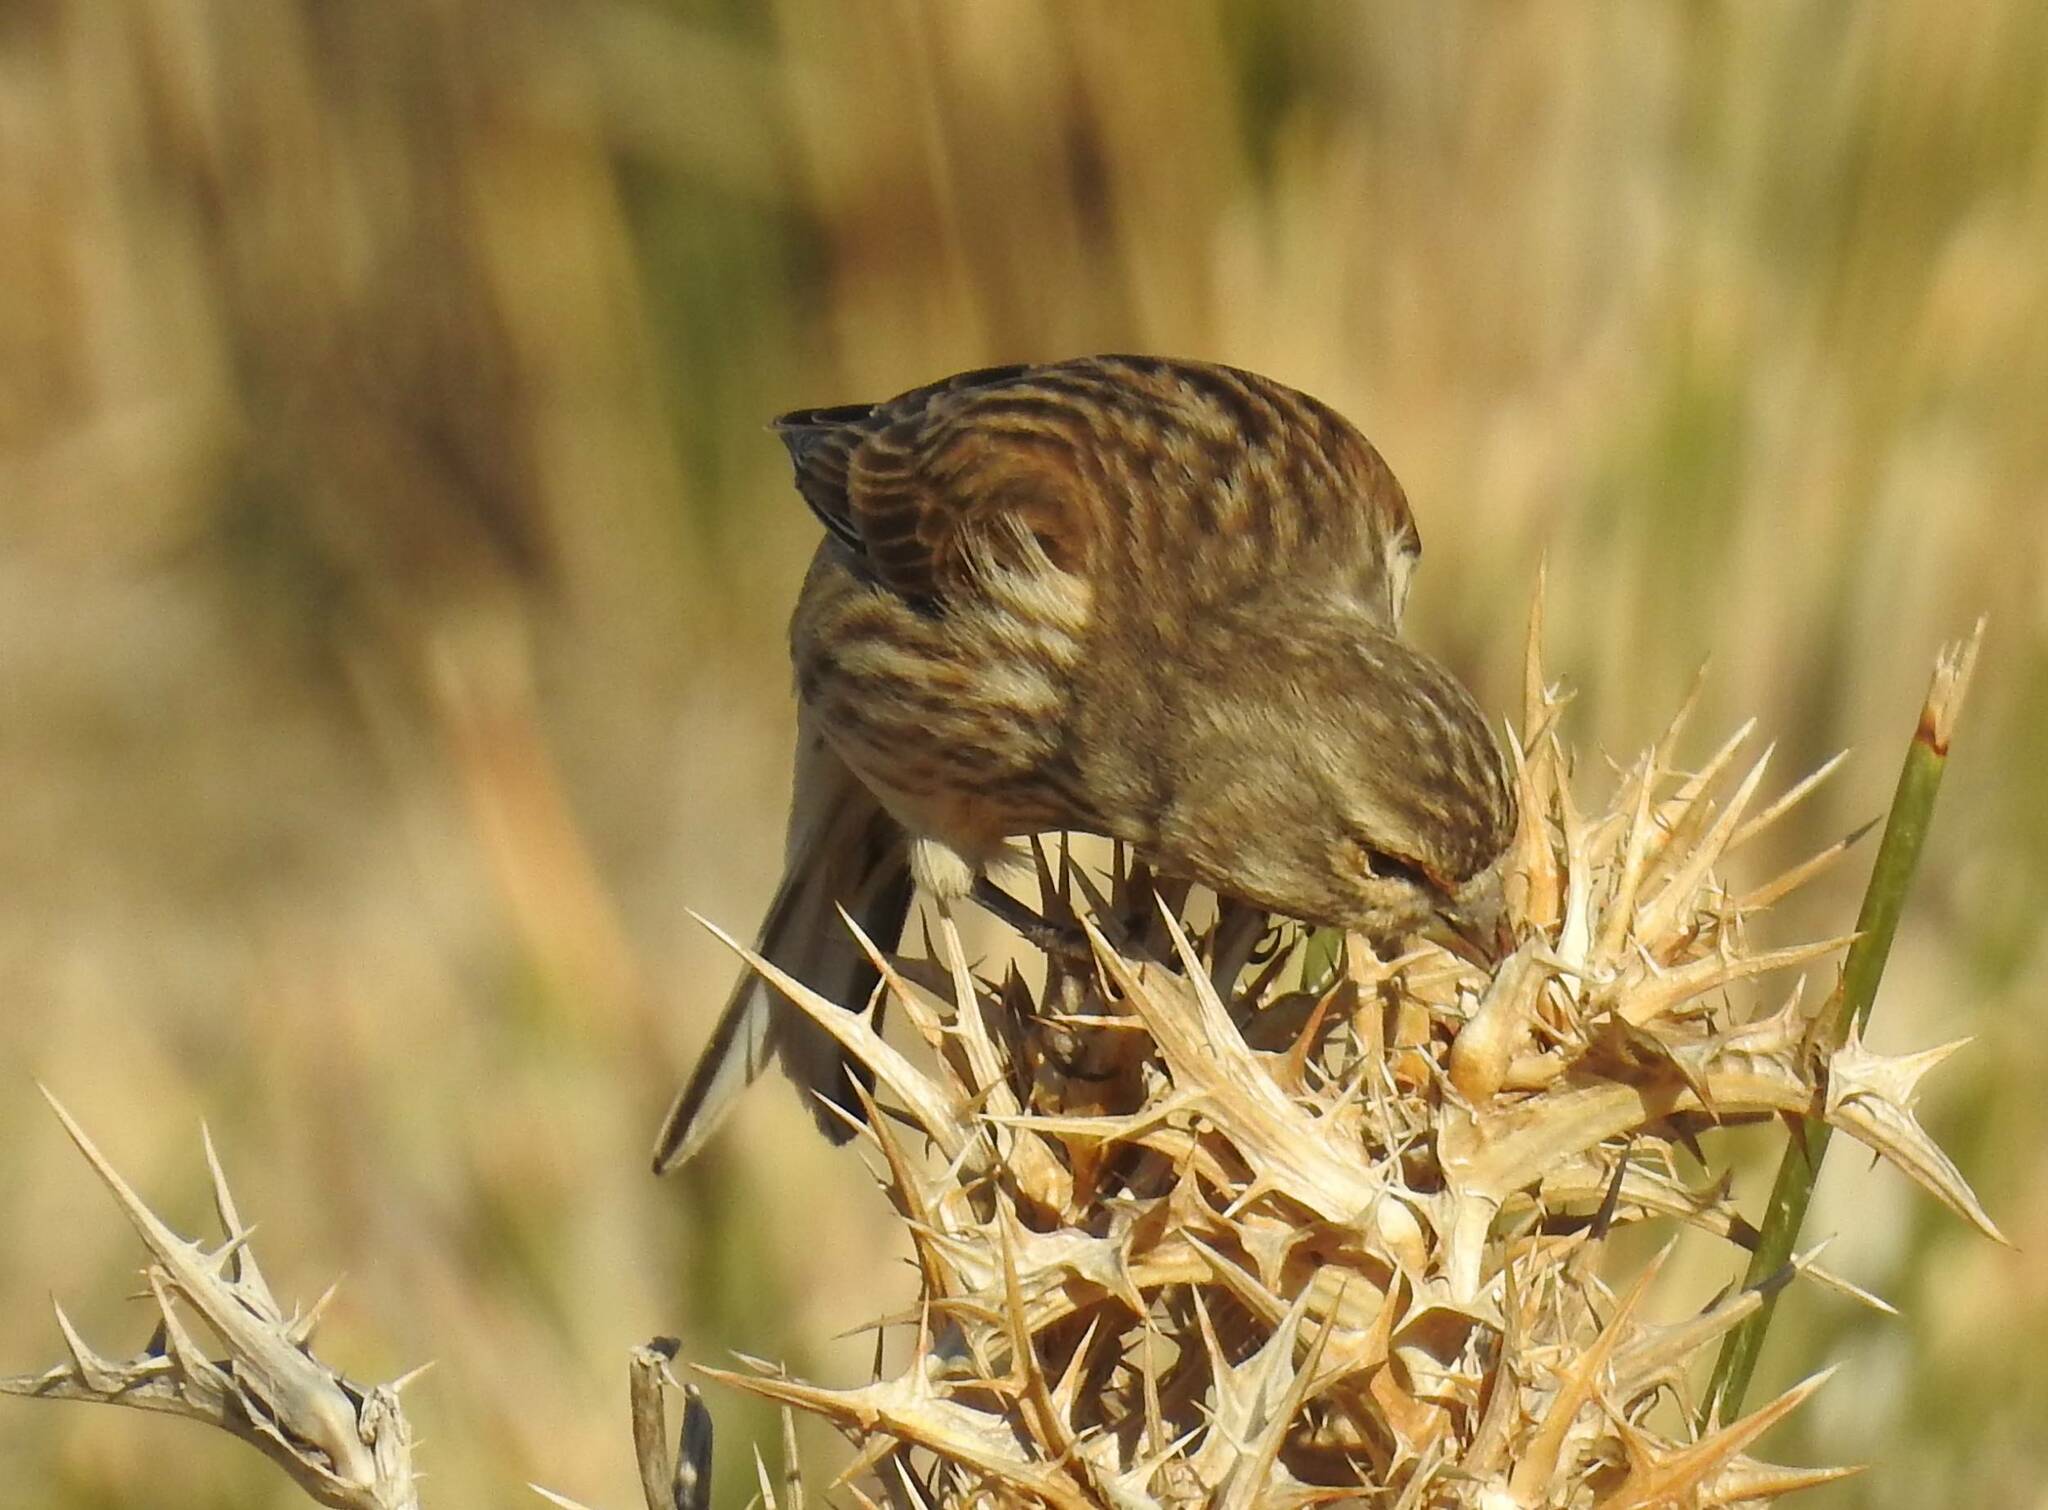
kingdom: Animalia
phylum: Chordata
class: Aves
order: Passeriformes
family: Fringillidae
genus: Linaria
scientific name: Linaria cannabina
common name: Common linnet
